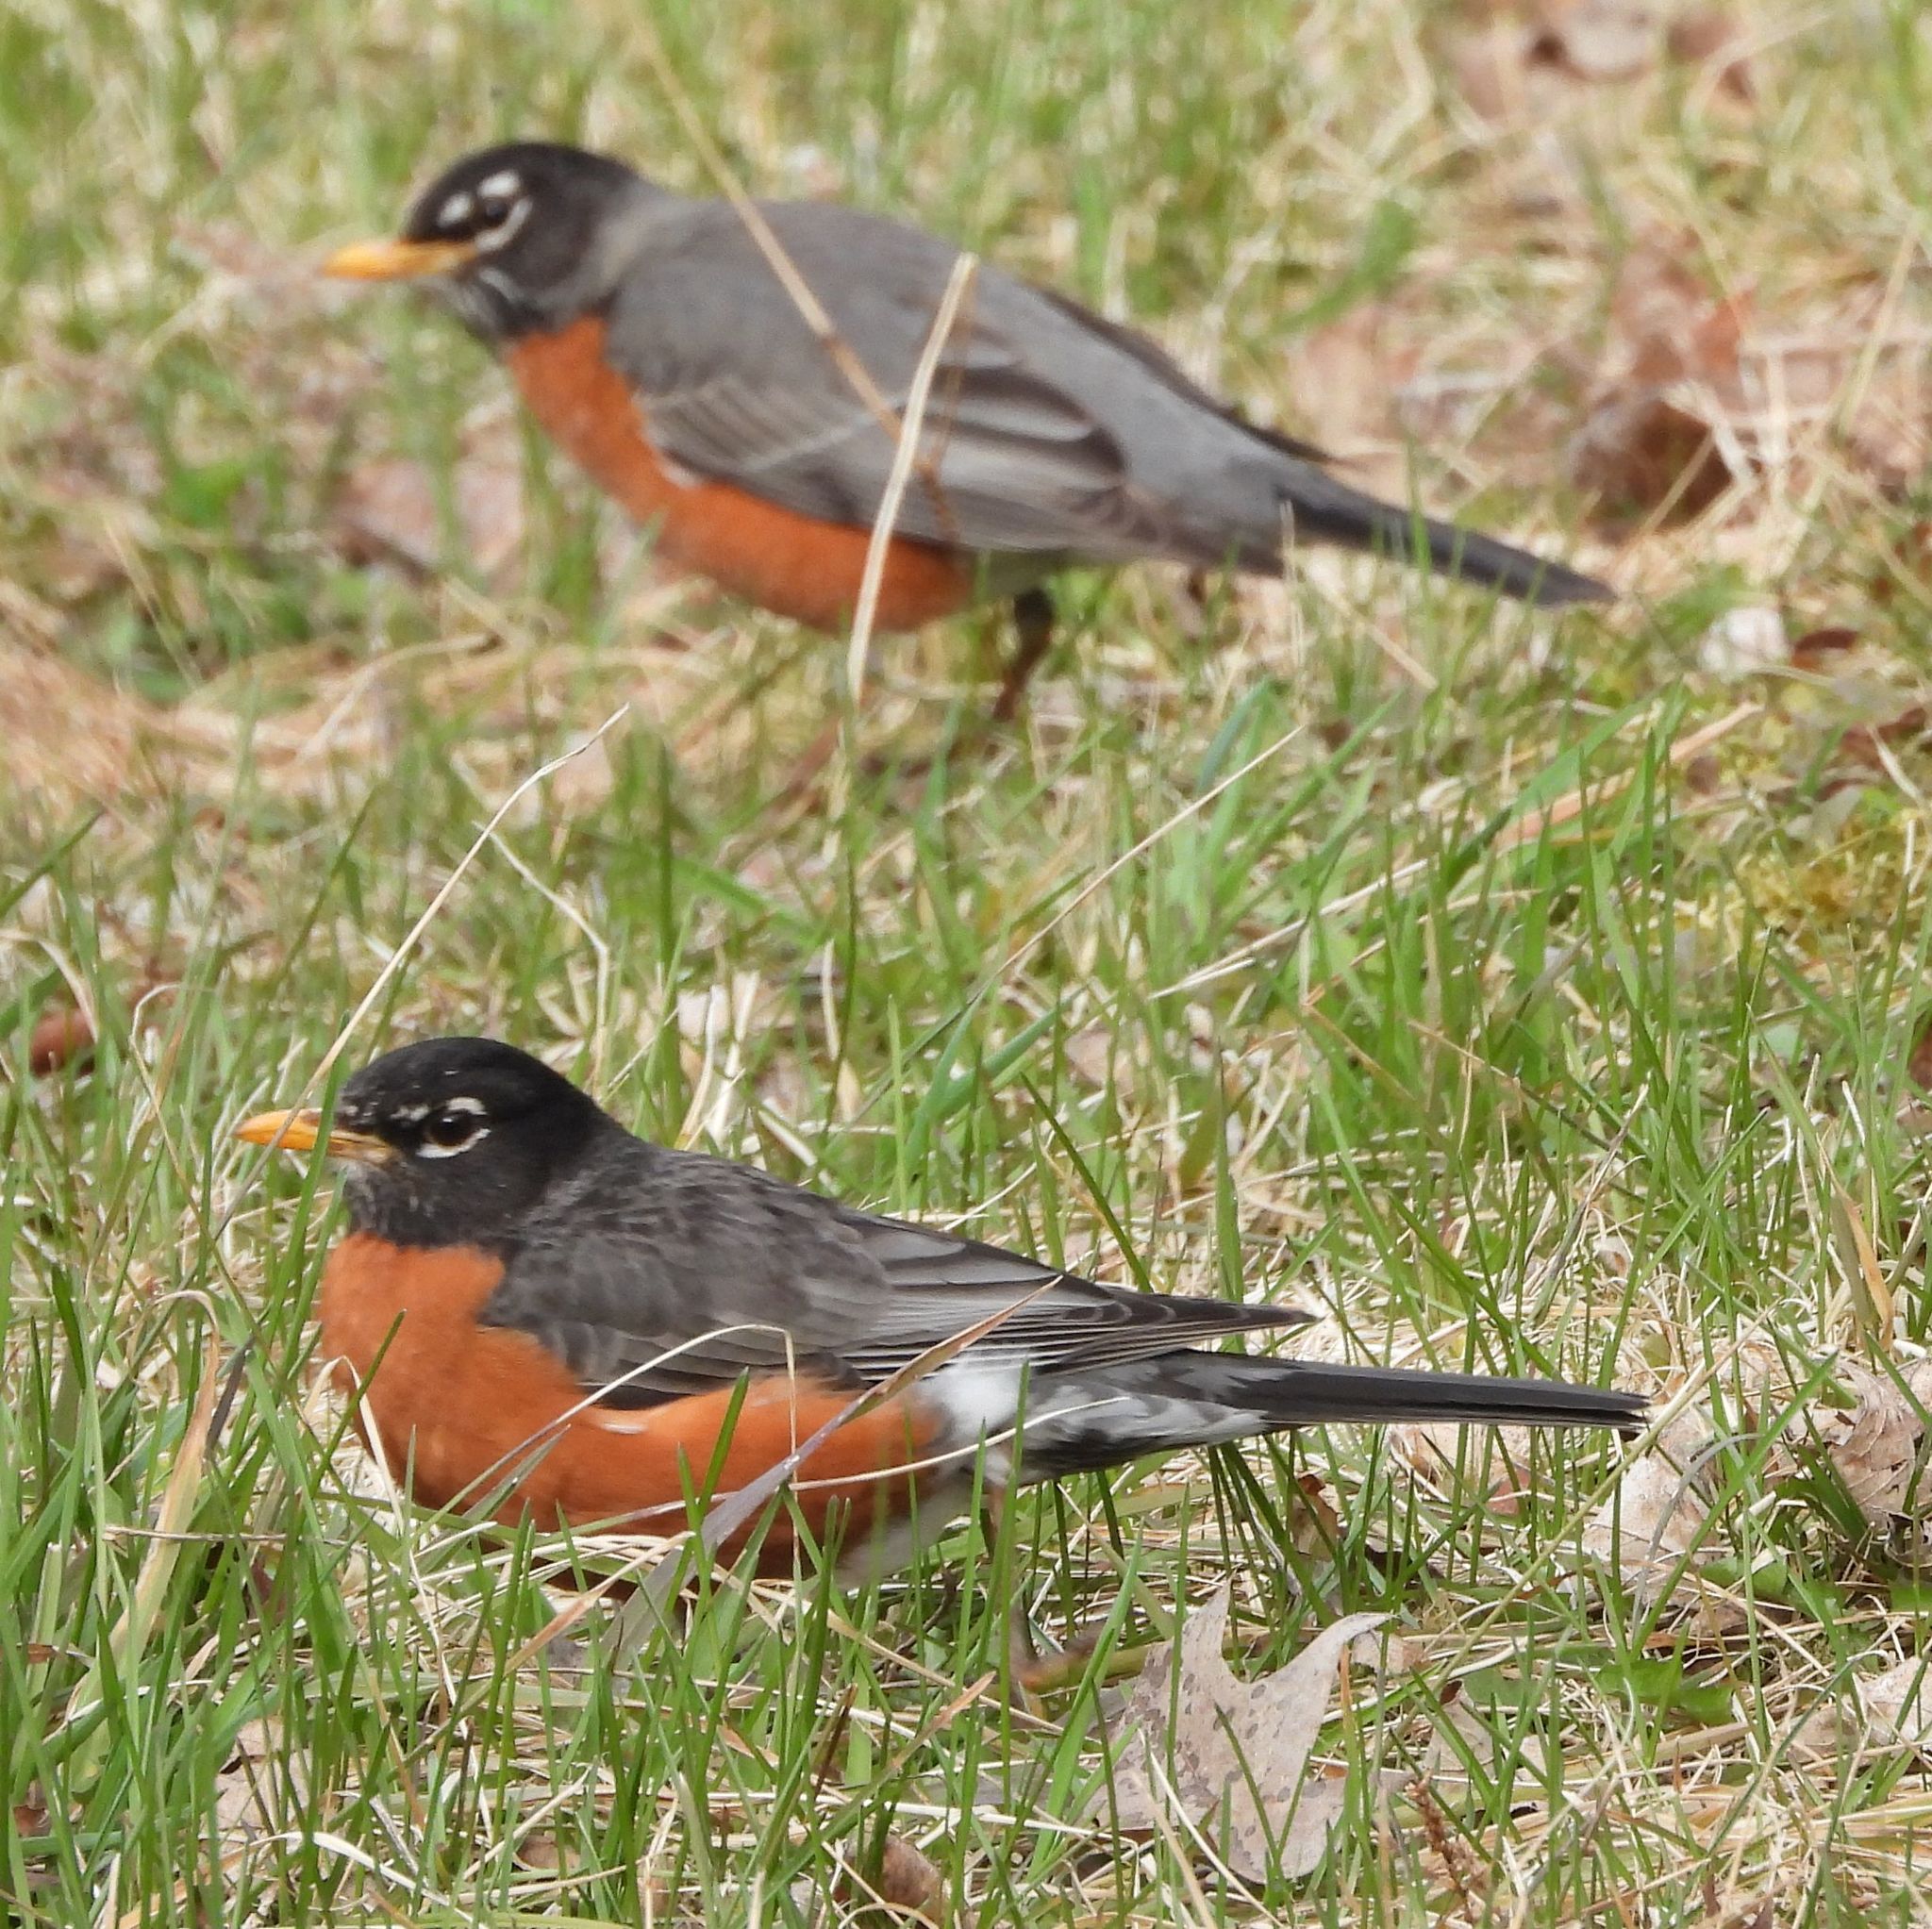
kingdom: Animalia
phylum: Chordata
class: Aves
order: Passeriformes
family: Turdidae
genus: Turdus
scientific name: Turdus migratorius
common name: American robin
